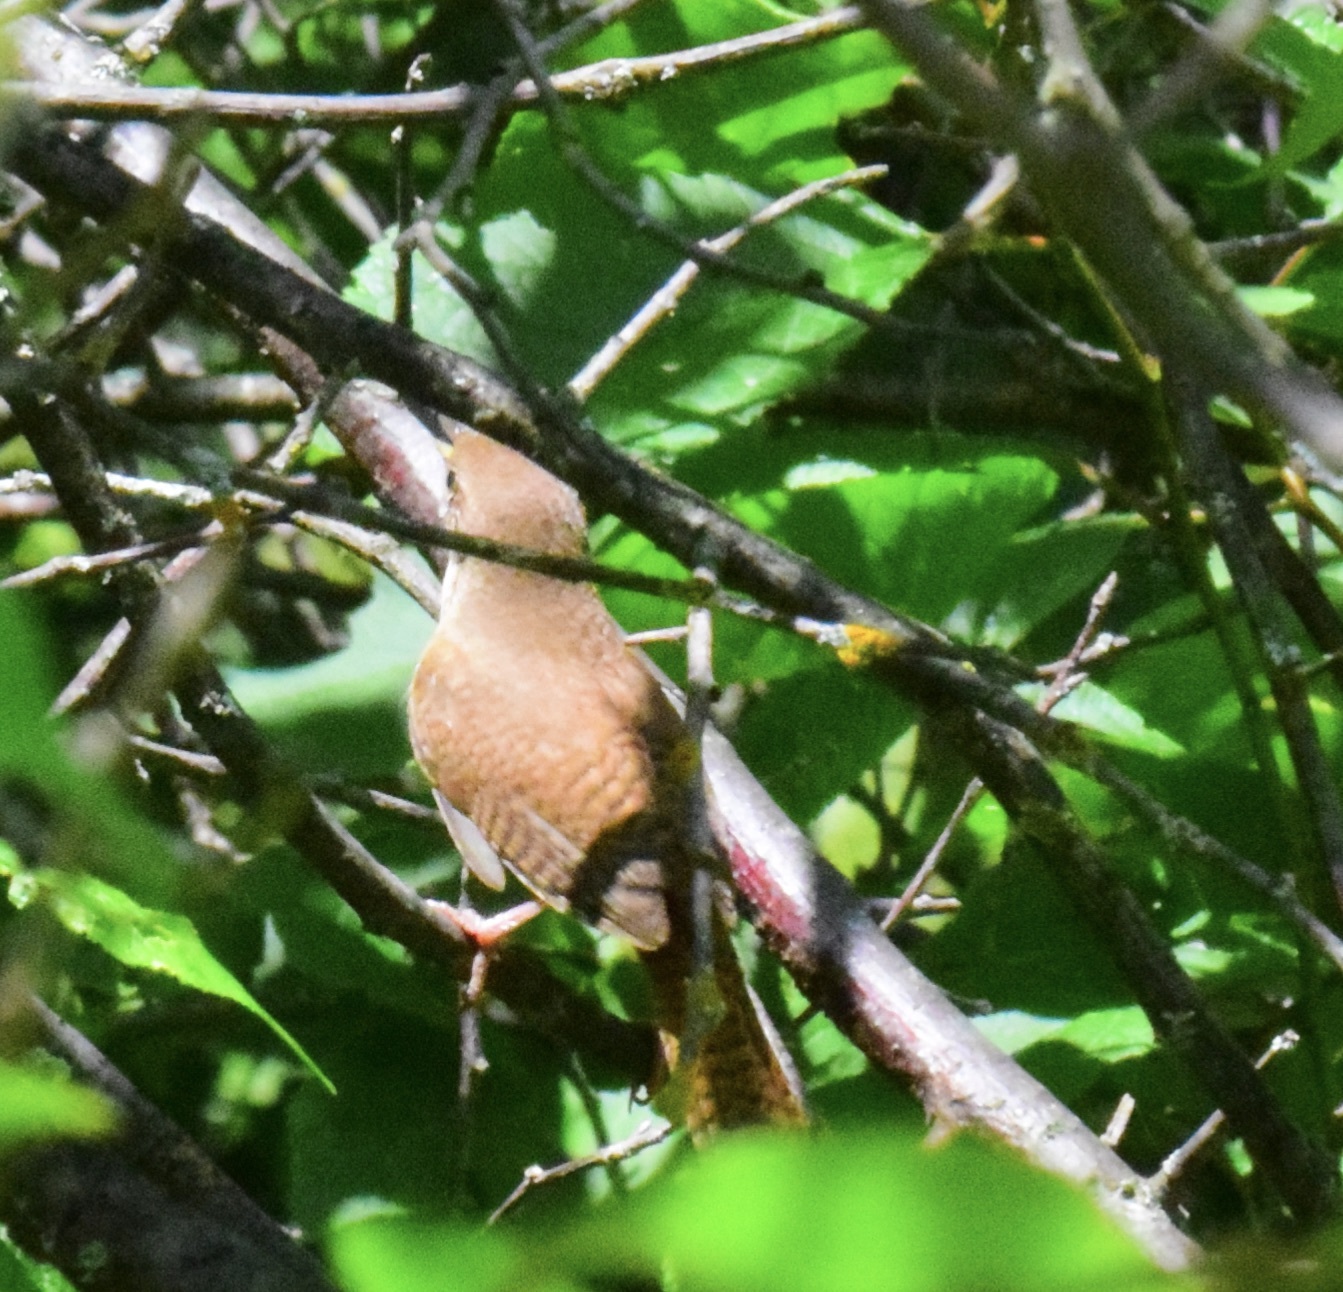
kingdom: Animalia
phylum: Chordata
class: Aves
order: Passeriformes
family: Troglodytidae
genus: Troglodytes
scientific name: Troglodytes aedon
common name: House wren
